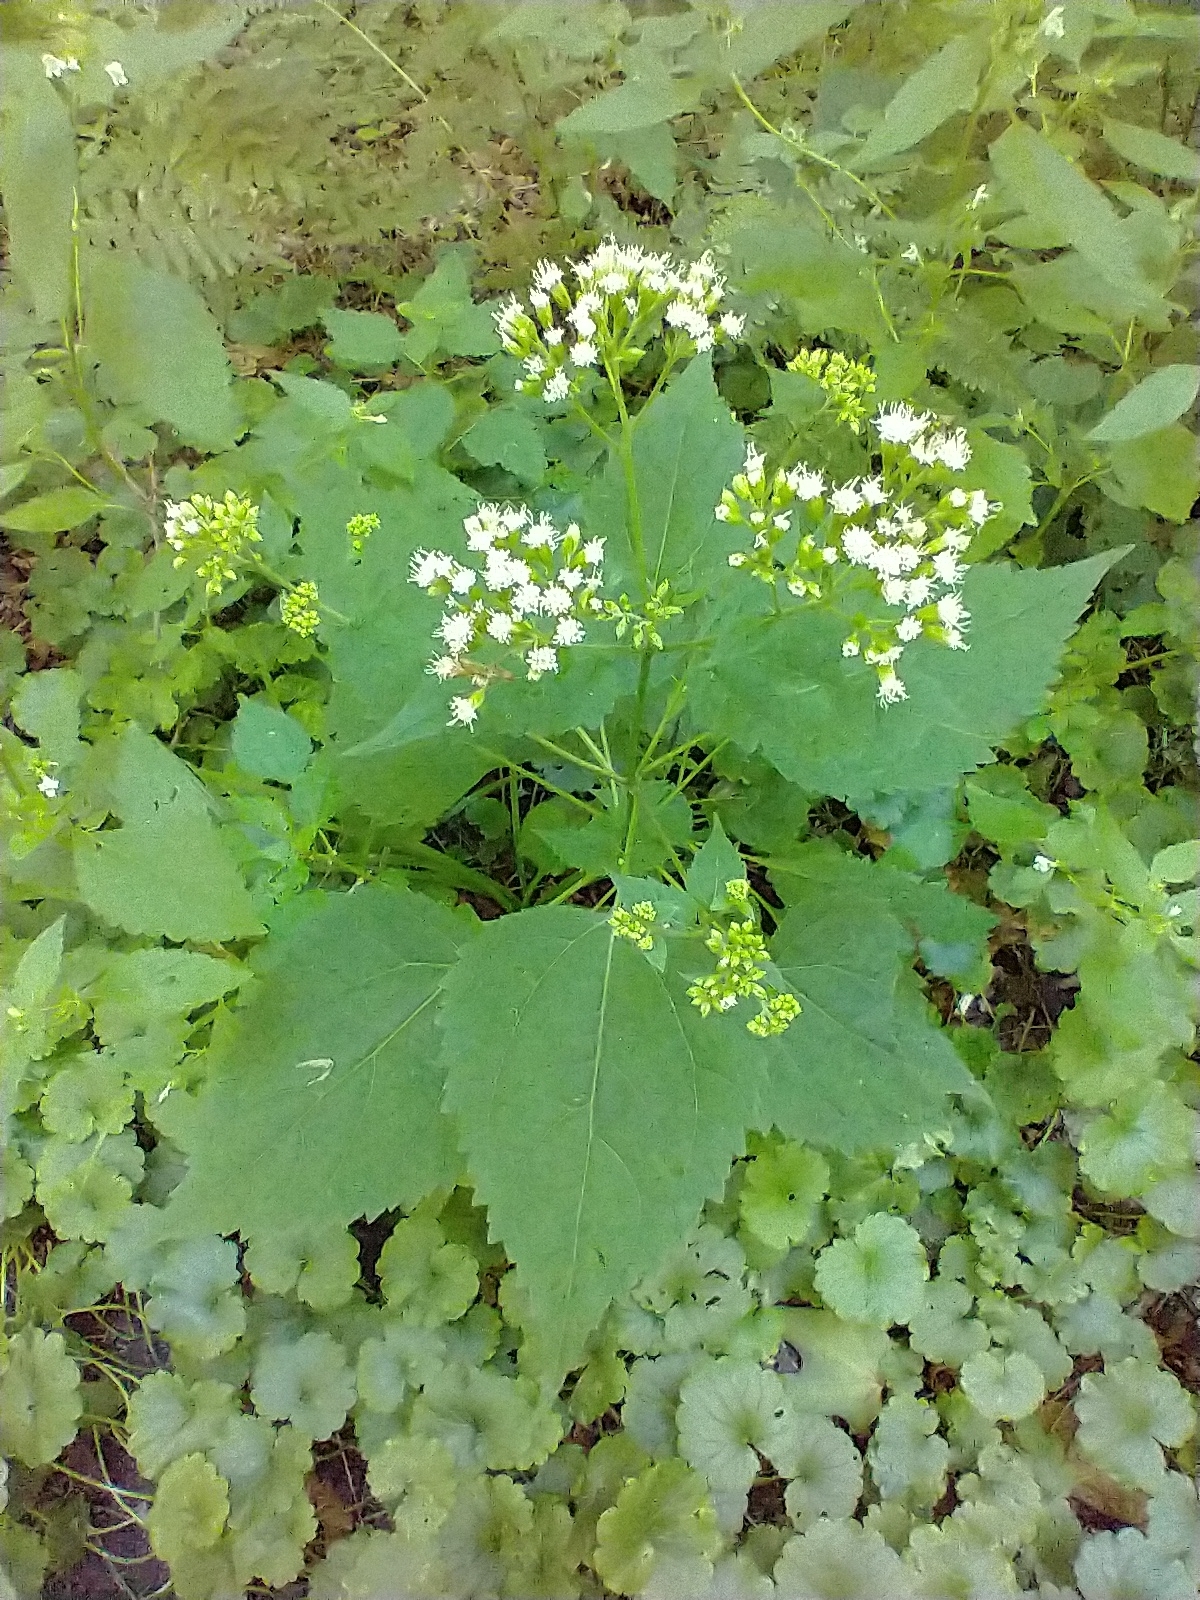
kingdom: Plantae
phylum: Tracheophyta
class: Magnoliopsida
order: Asterales
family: Asteraceae
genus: Ageratina
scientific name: Ageratina altissima
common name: White snakeroot
